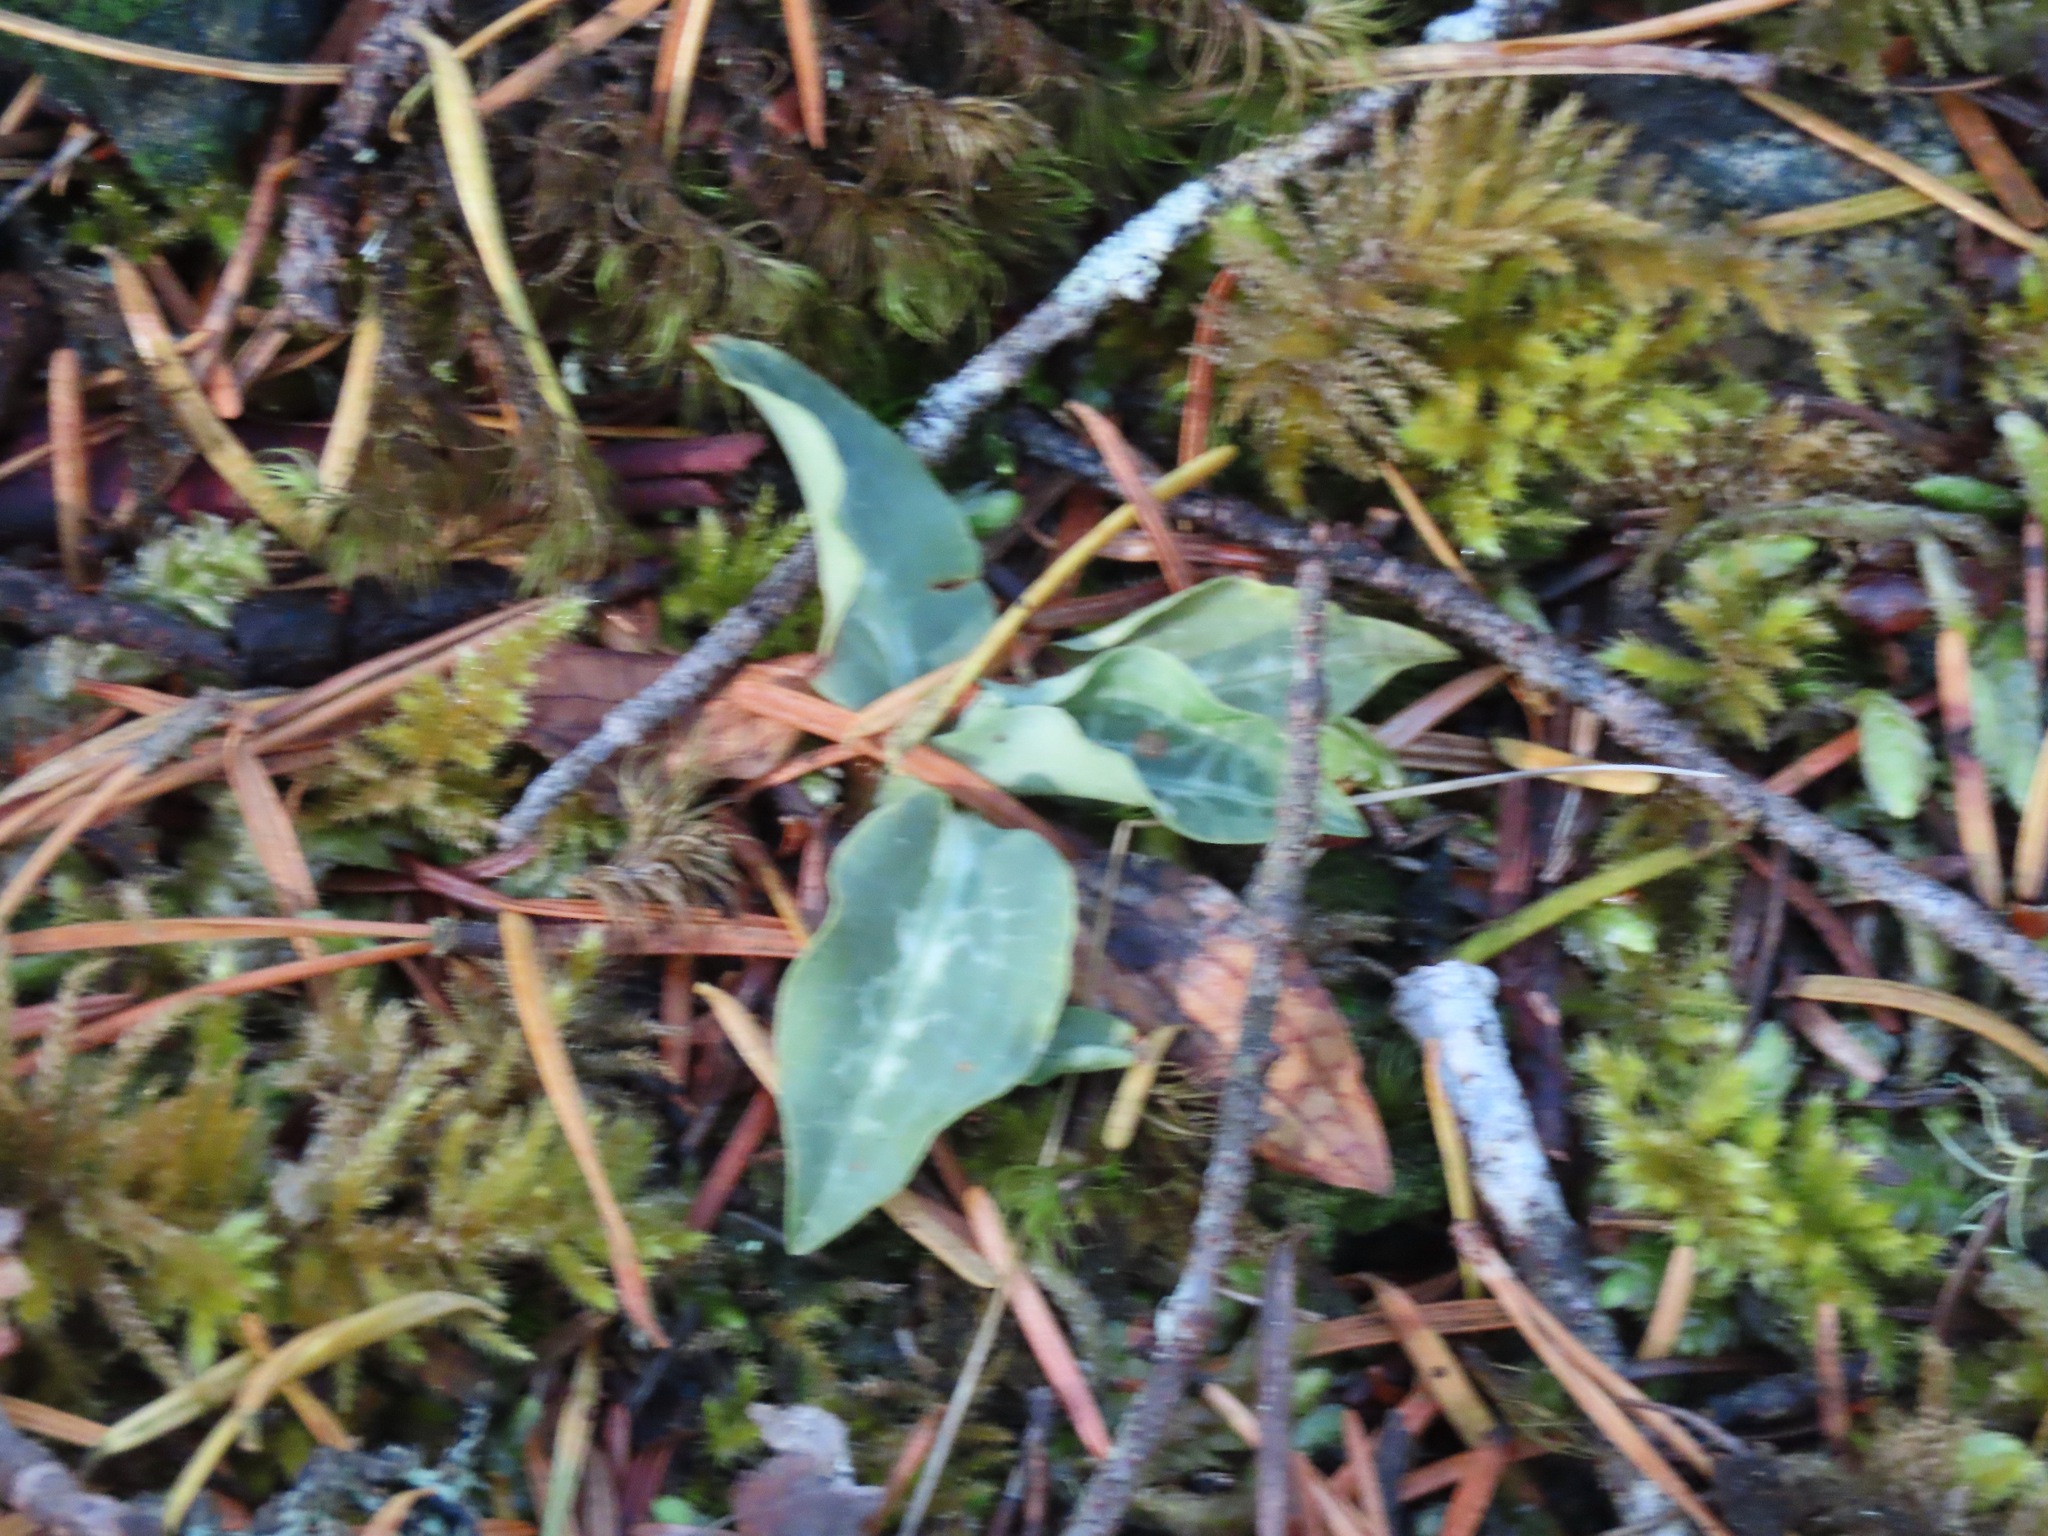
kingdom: Plantae
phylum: Tracheophyta
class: Liliopsida
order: Asparagales
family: Orchidaceae
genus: Goodyera
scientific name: Goodyera oblongifolia
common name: Giant rattlesnake-plantain
